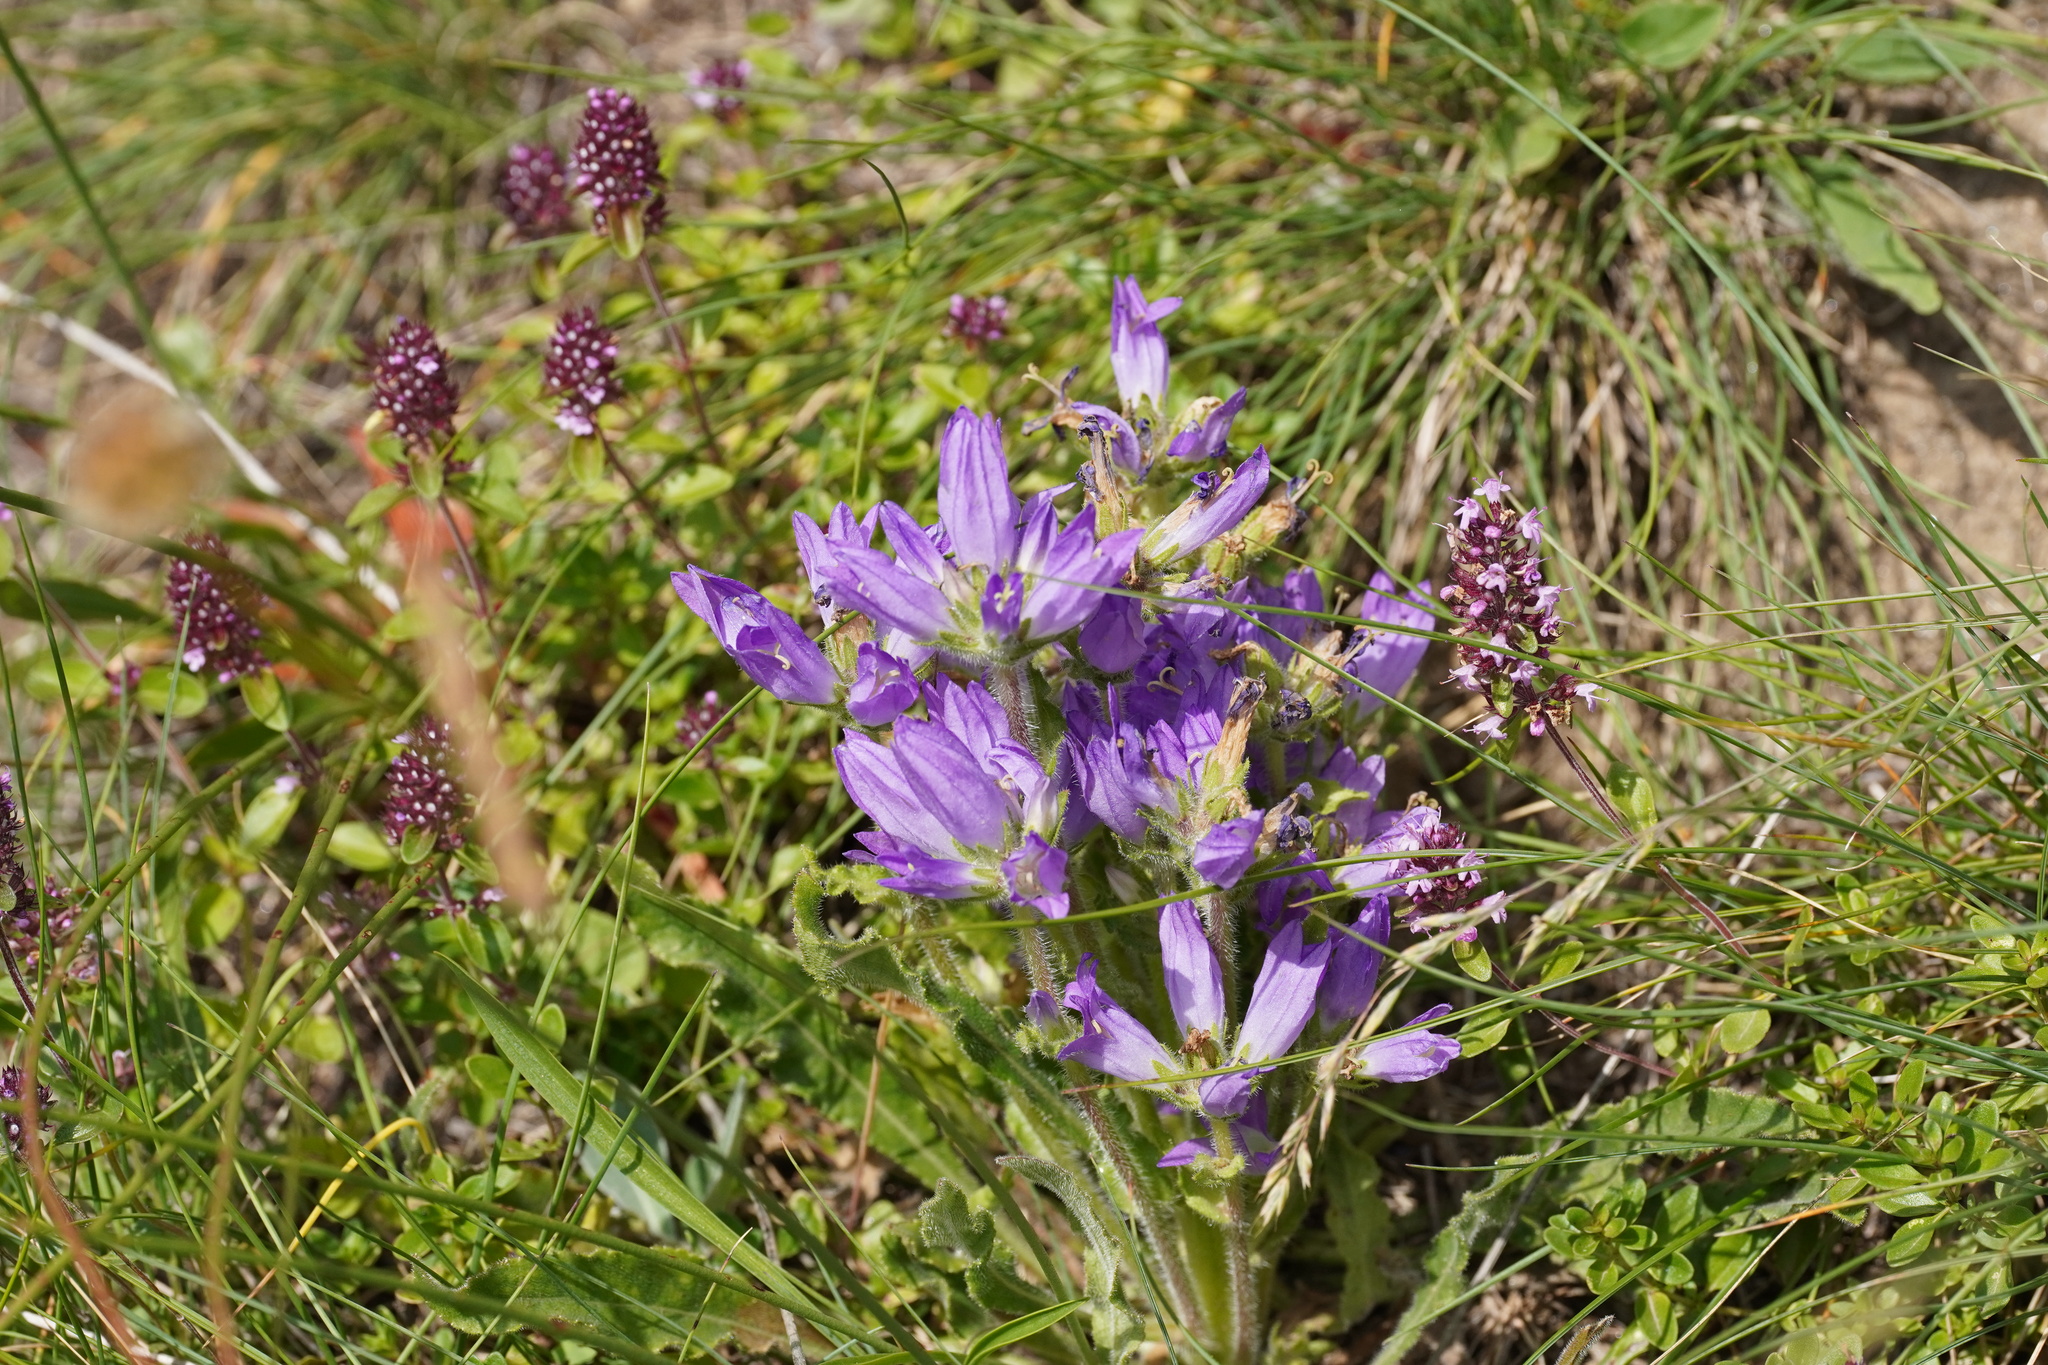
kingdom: Plantae
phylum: Tracheophyta
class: Magnoliopsida
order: Asterales
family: Campanulaceae
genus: Campanula
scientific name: Campanula spicata
